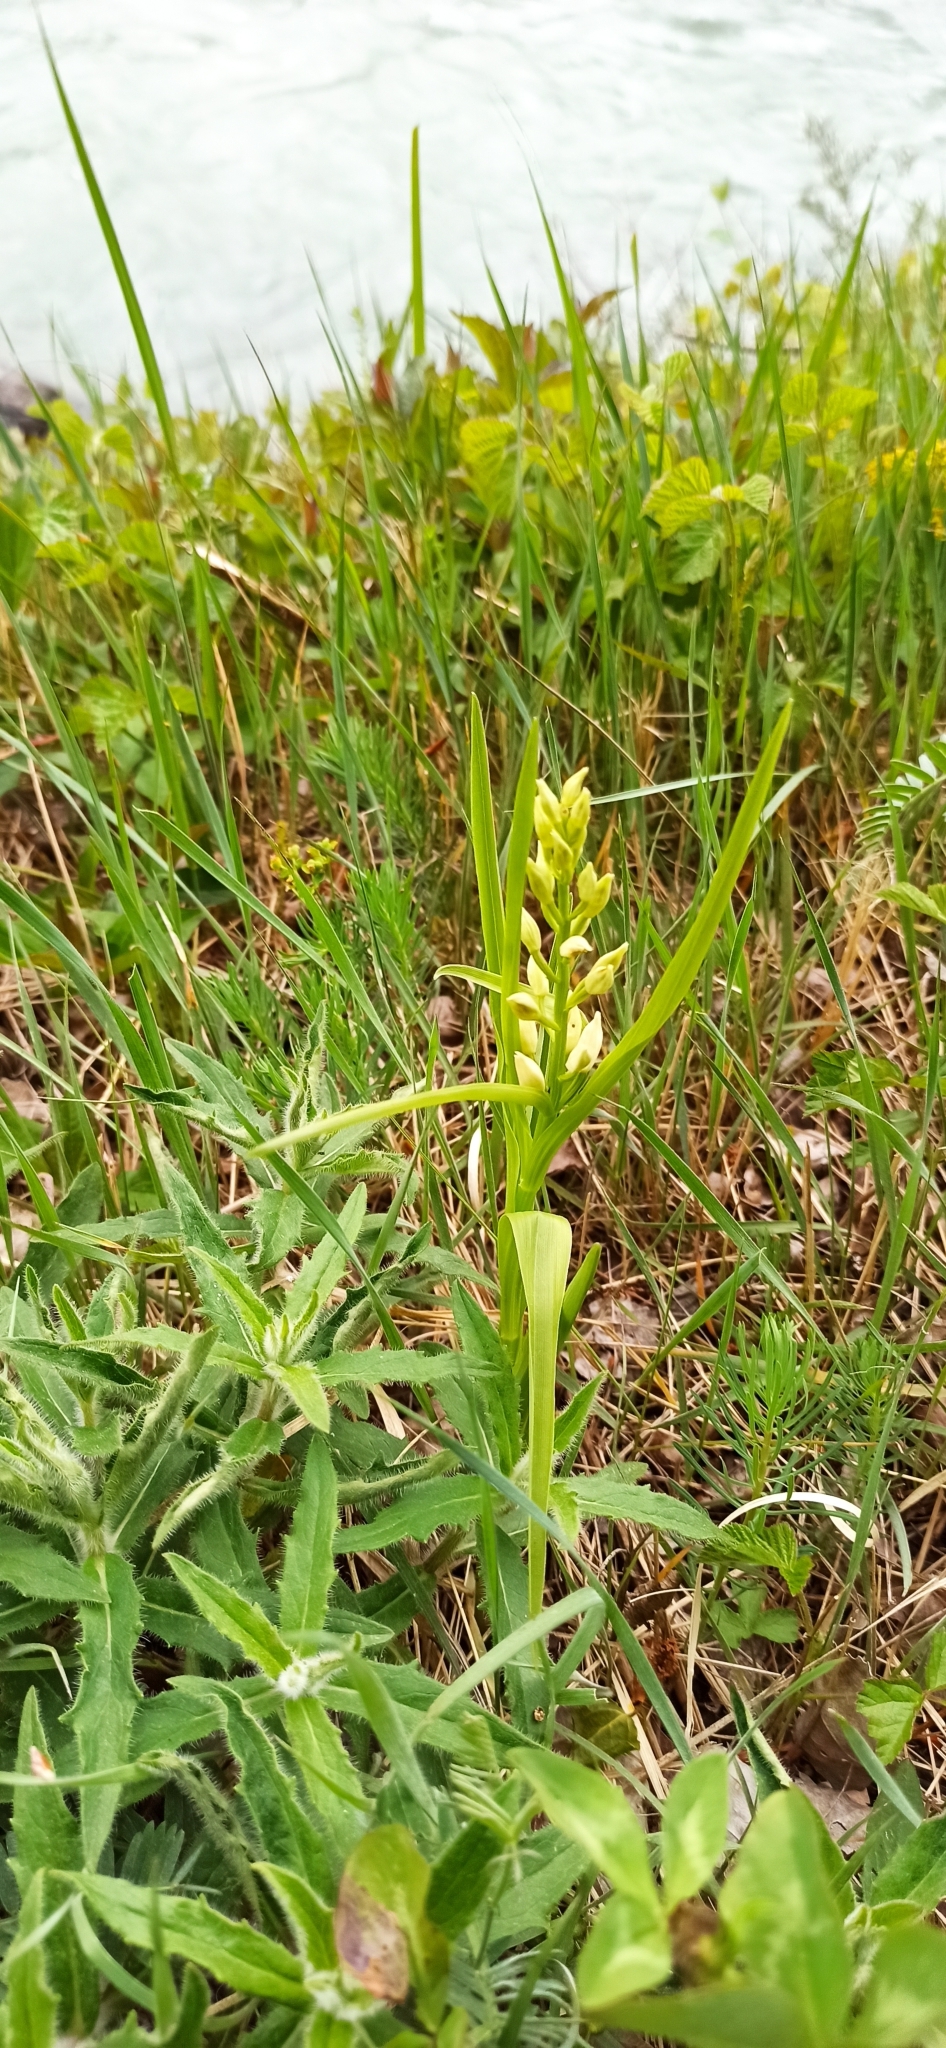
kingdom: Plantae
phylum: Tracheophyta
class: Liliopsida
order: Asparagales
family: Orchidaceae
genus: Cephalanthera
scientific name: Cephalanthera longifolia
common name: Narrow-leaved helleborine
